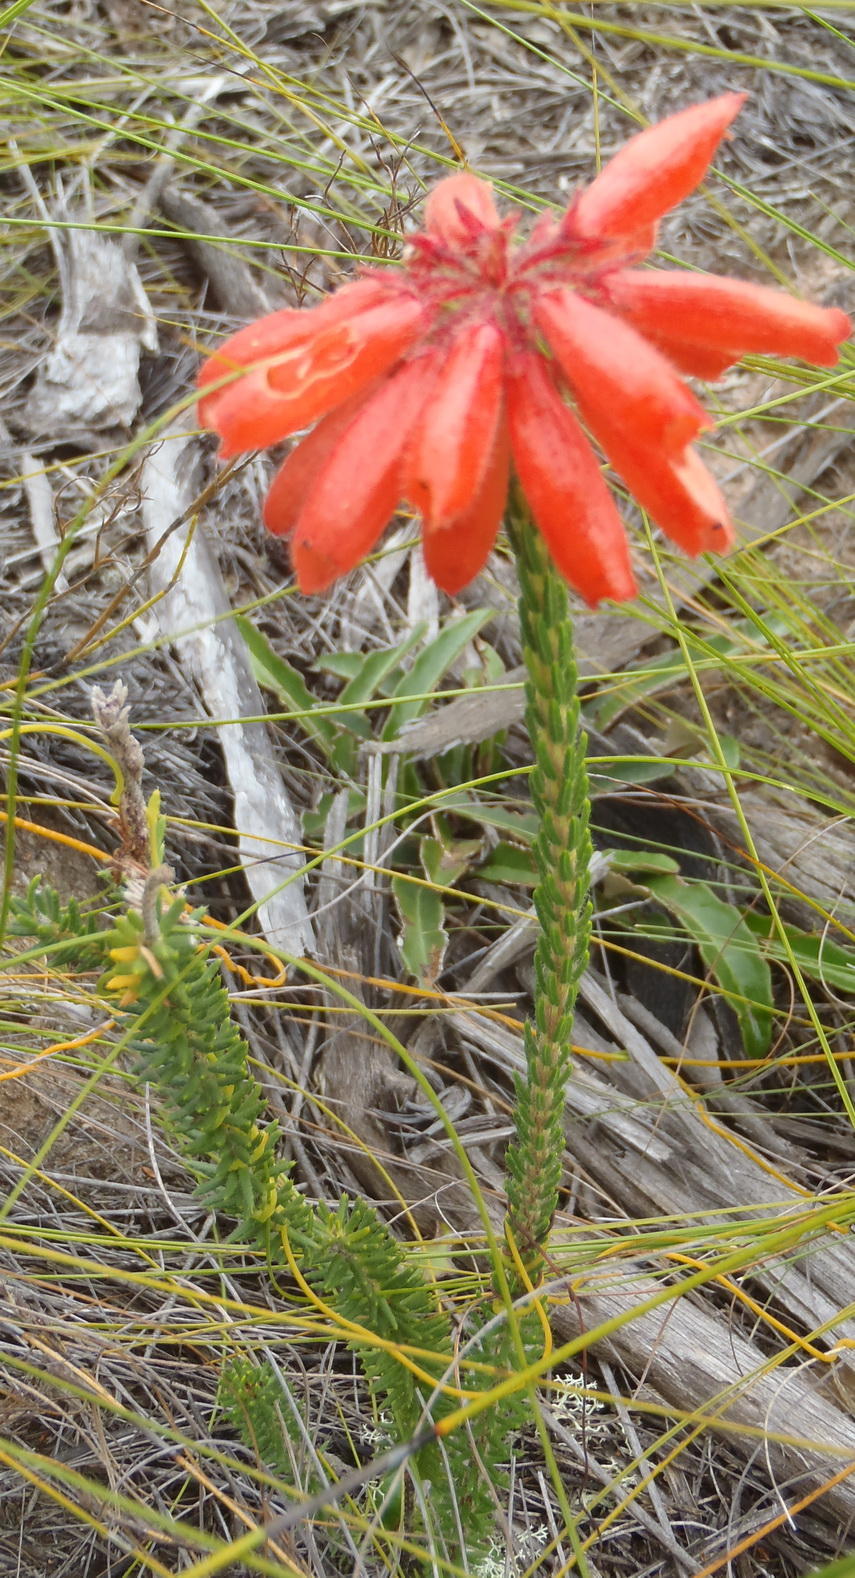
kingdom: Plantae
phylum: Tracheophyta
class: Magnoliopsida
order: Ericales
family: Ericaceae
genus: Erica
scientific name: Erica cerinthoides
